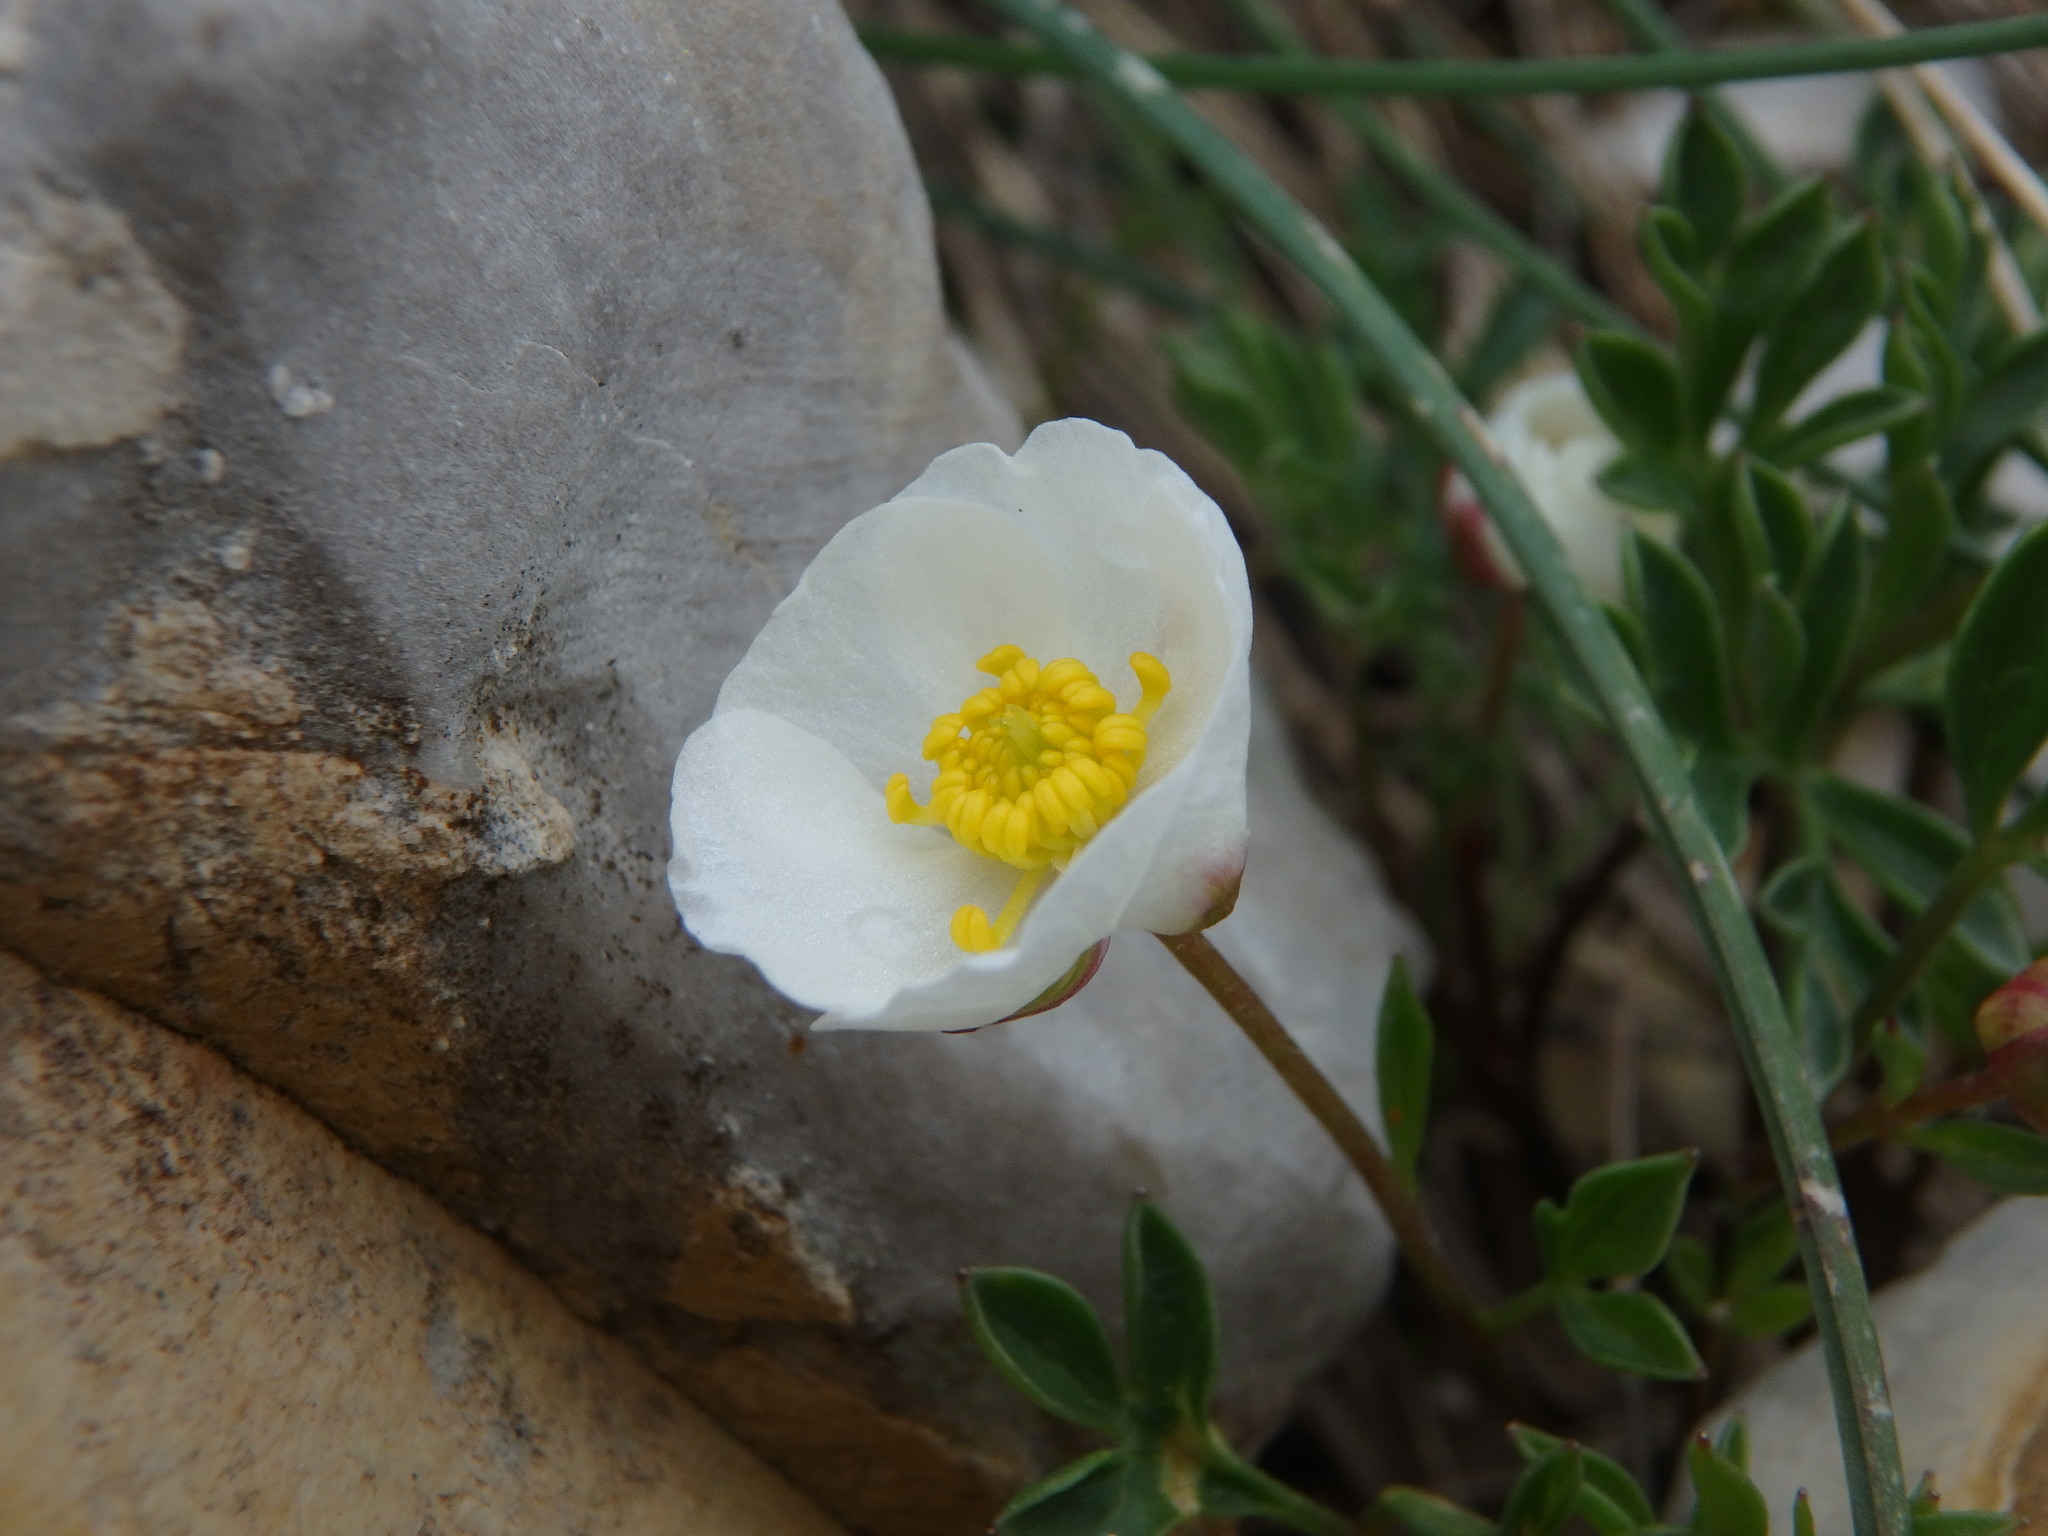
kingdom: Plantae
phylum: Tracheophyta
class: Magnoliopsida
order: Ranunculales
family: Ranunculaceae
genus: Ranunculus
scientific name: Ranunculus seguieri
